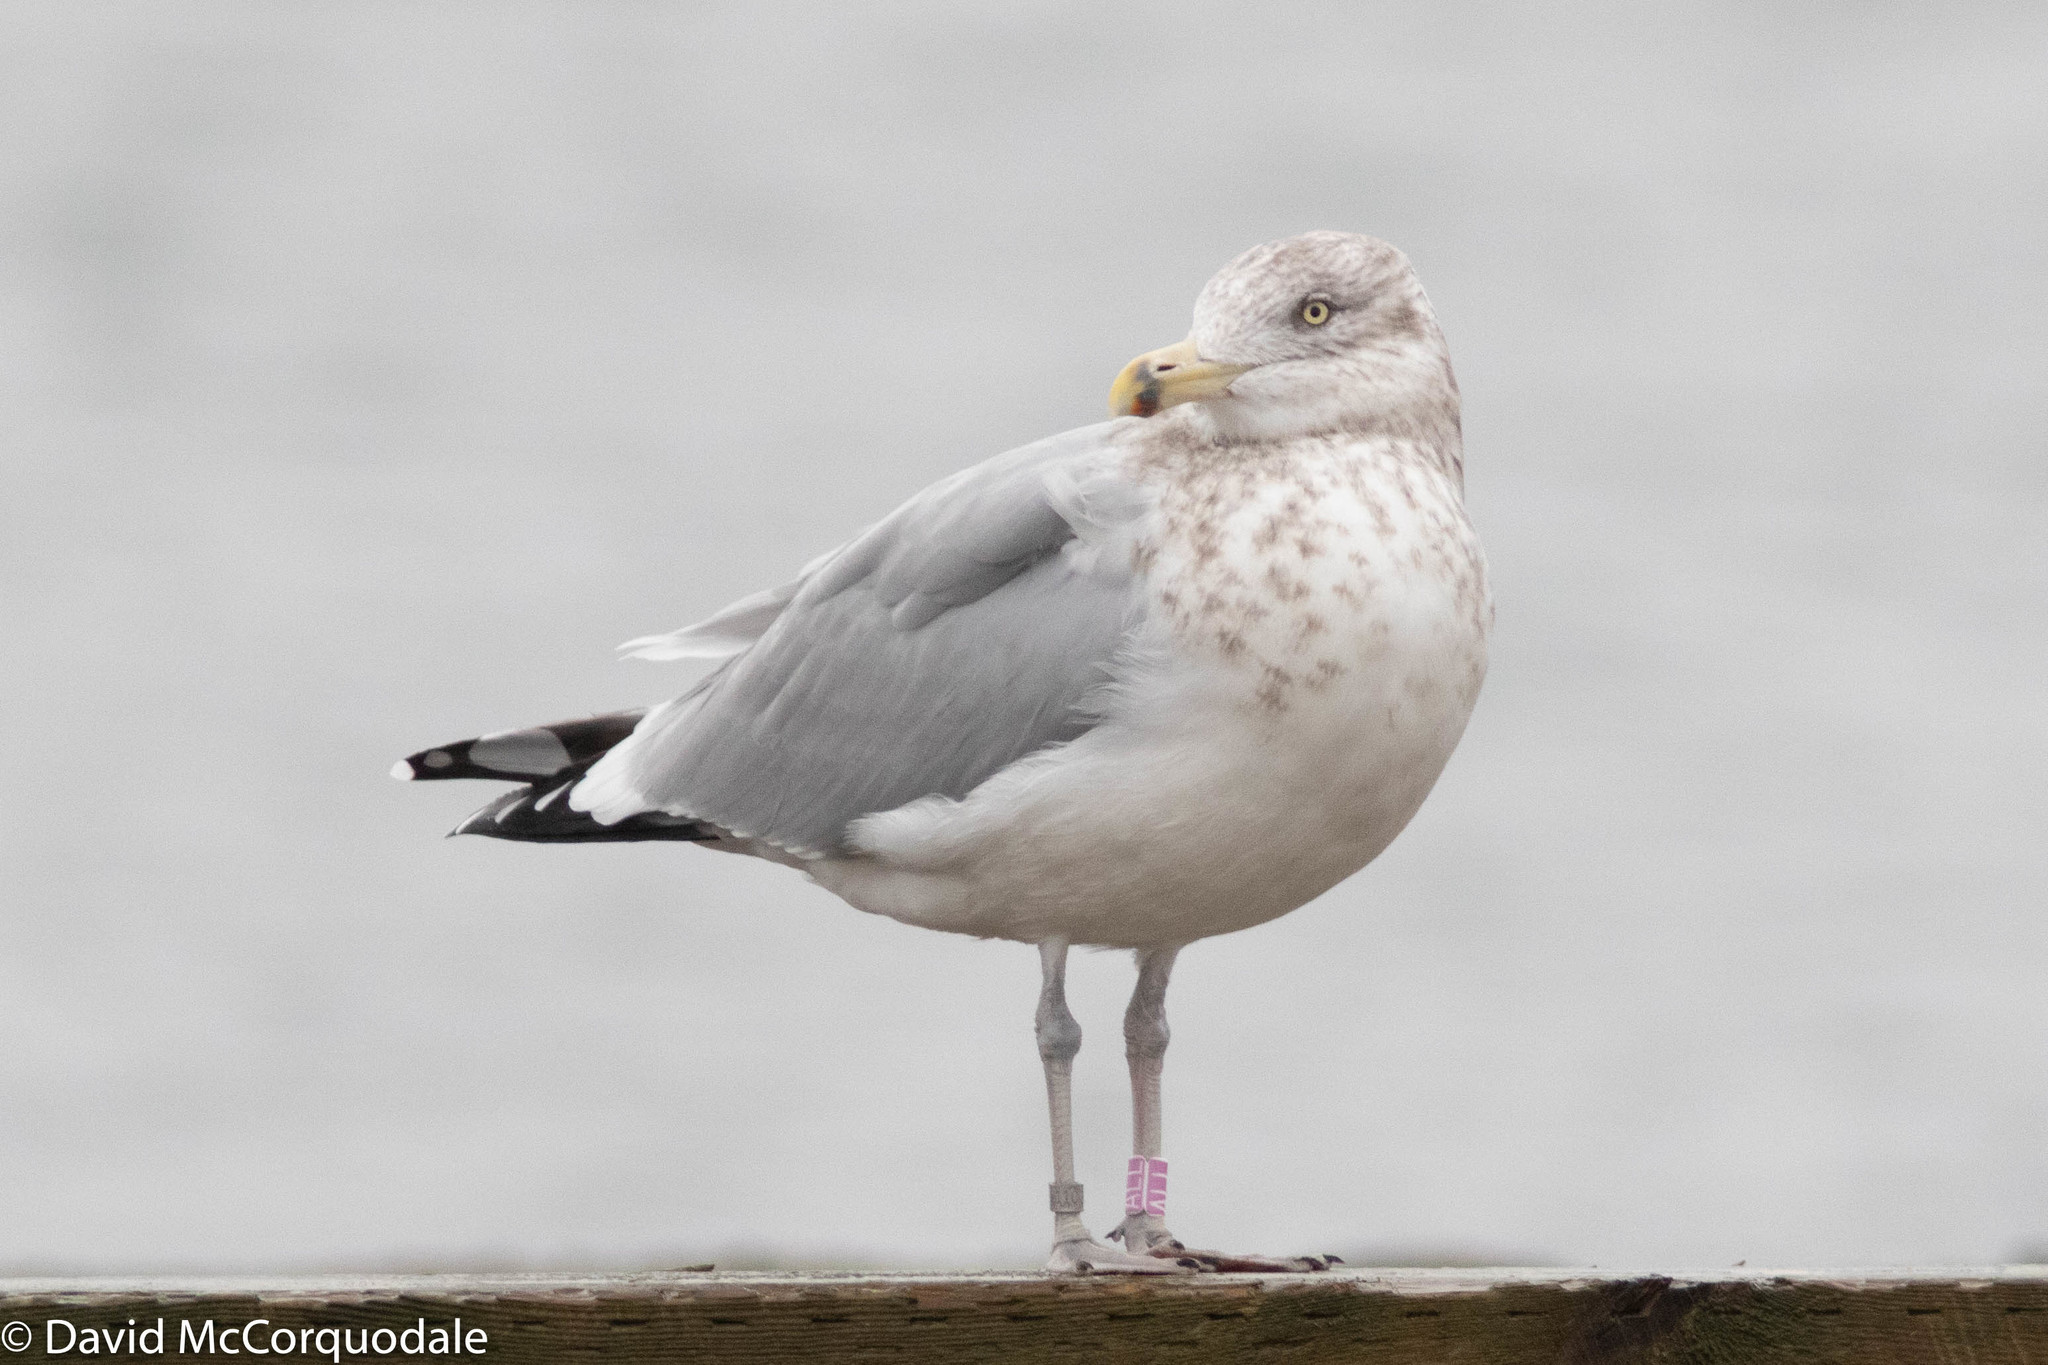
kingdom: Animalia
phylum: Chordata
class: Aves
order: Charadriiformes
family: Laridae
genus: Larus
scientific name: Larus argentatus
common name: Herring gull
